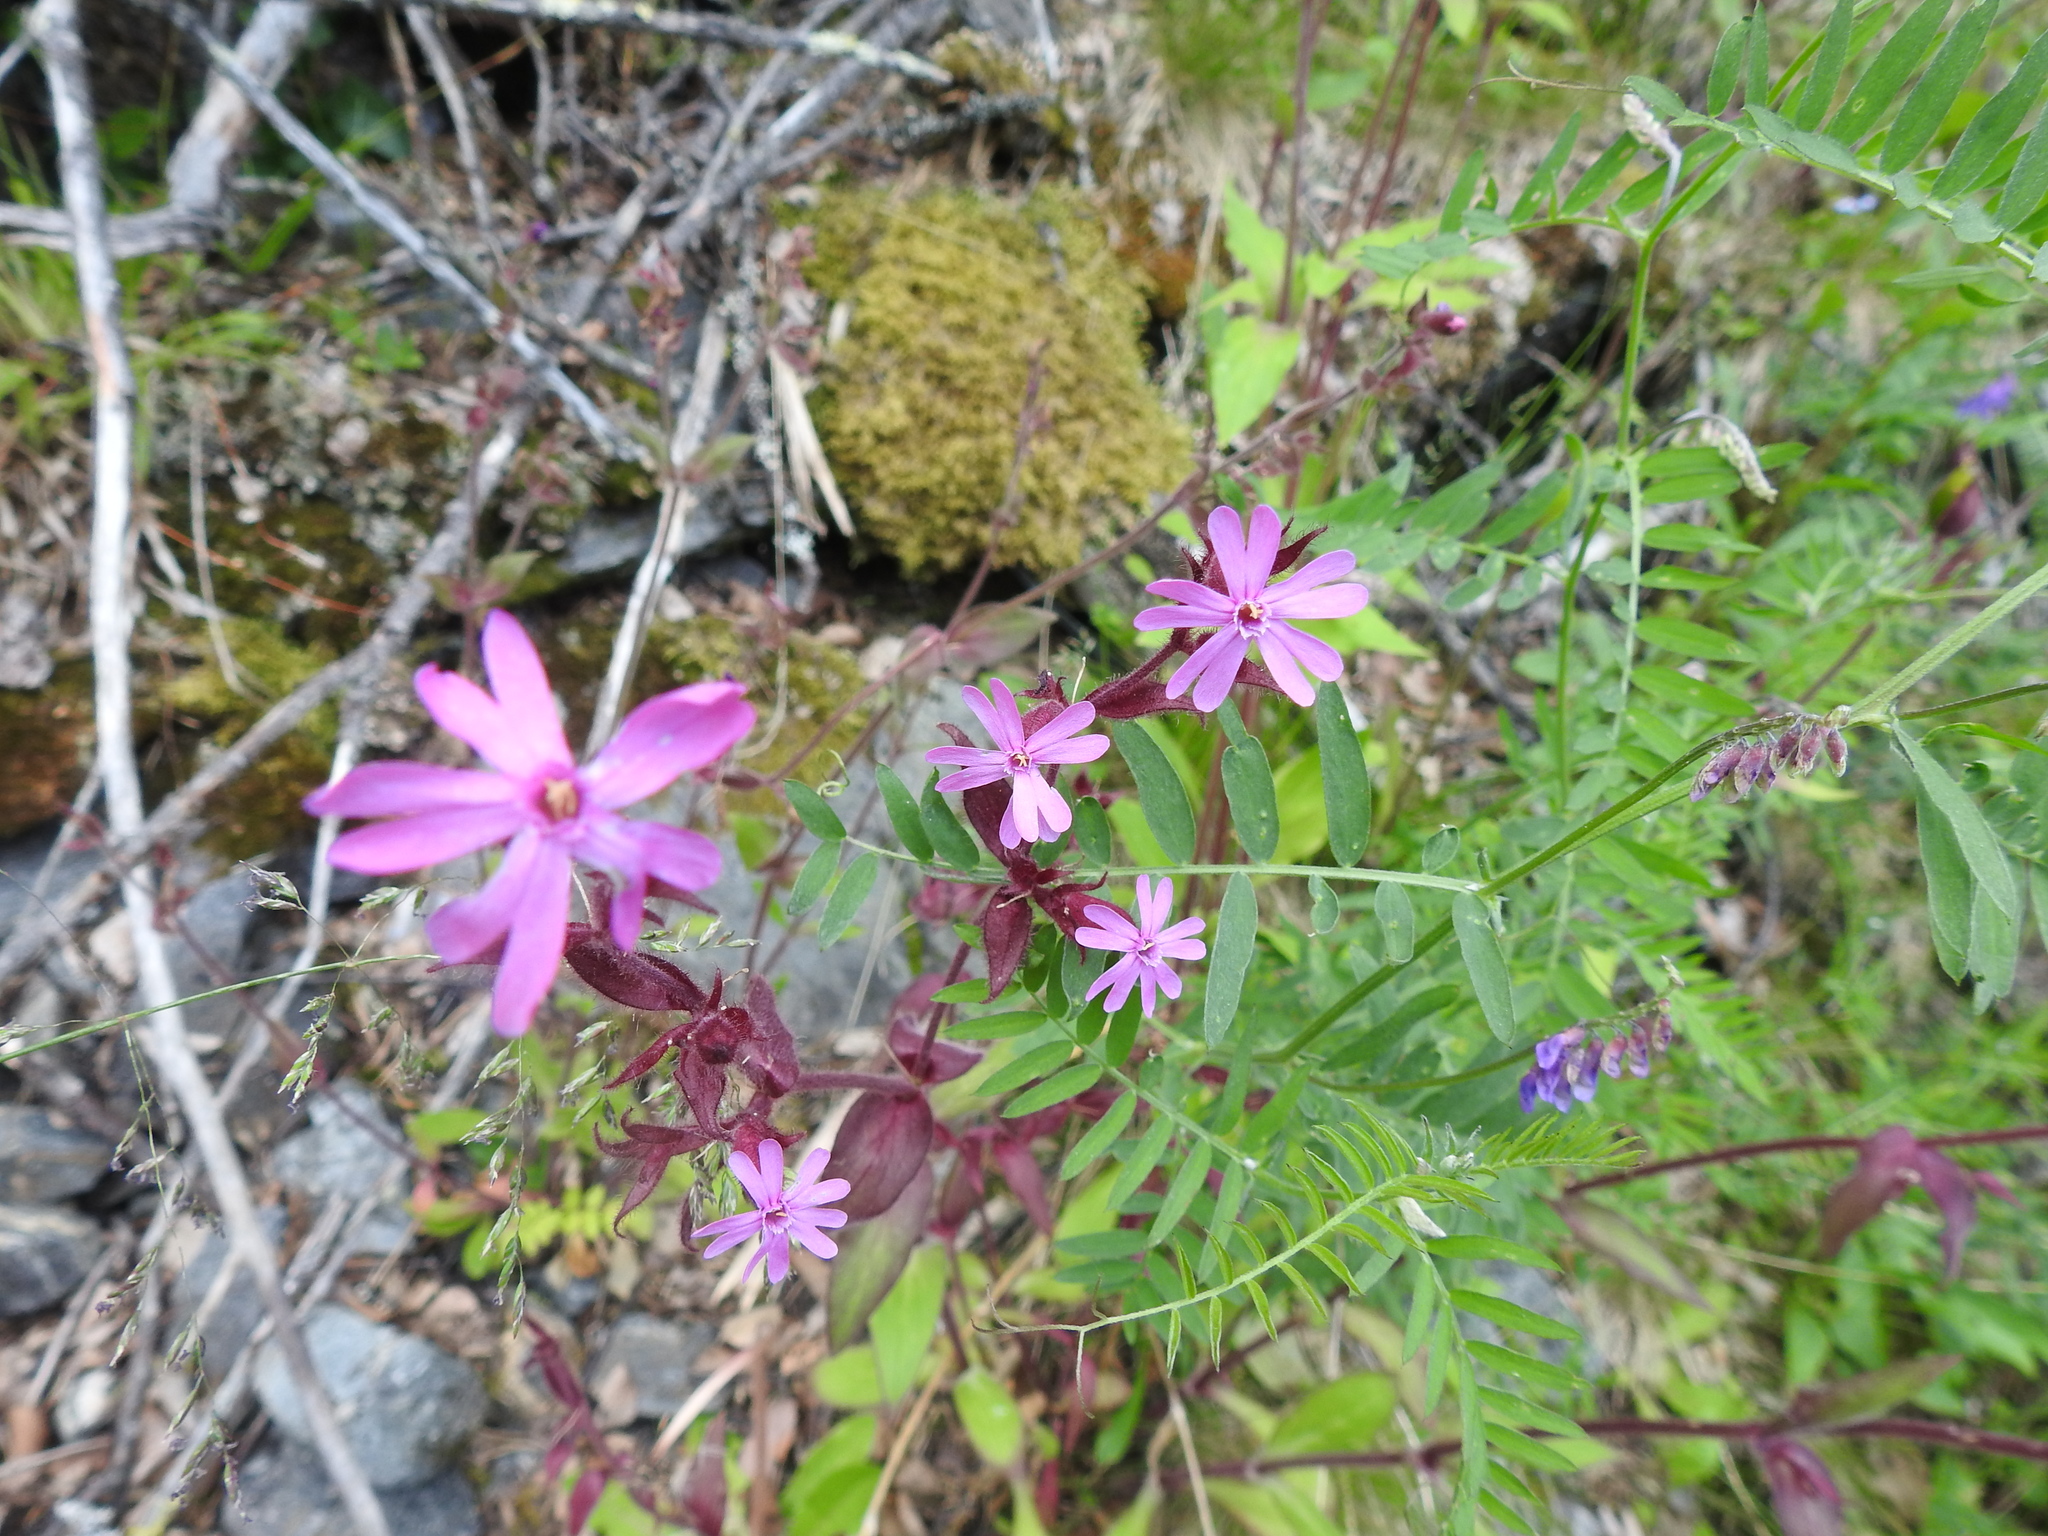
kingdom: Plantae
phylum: Tracheophyta
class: Magnoliopsida
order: Caryophyllales
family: Caryophyllaceae
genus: Silene
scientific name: Silene dioica
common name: Red campion
